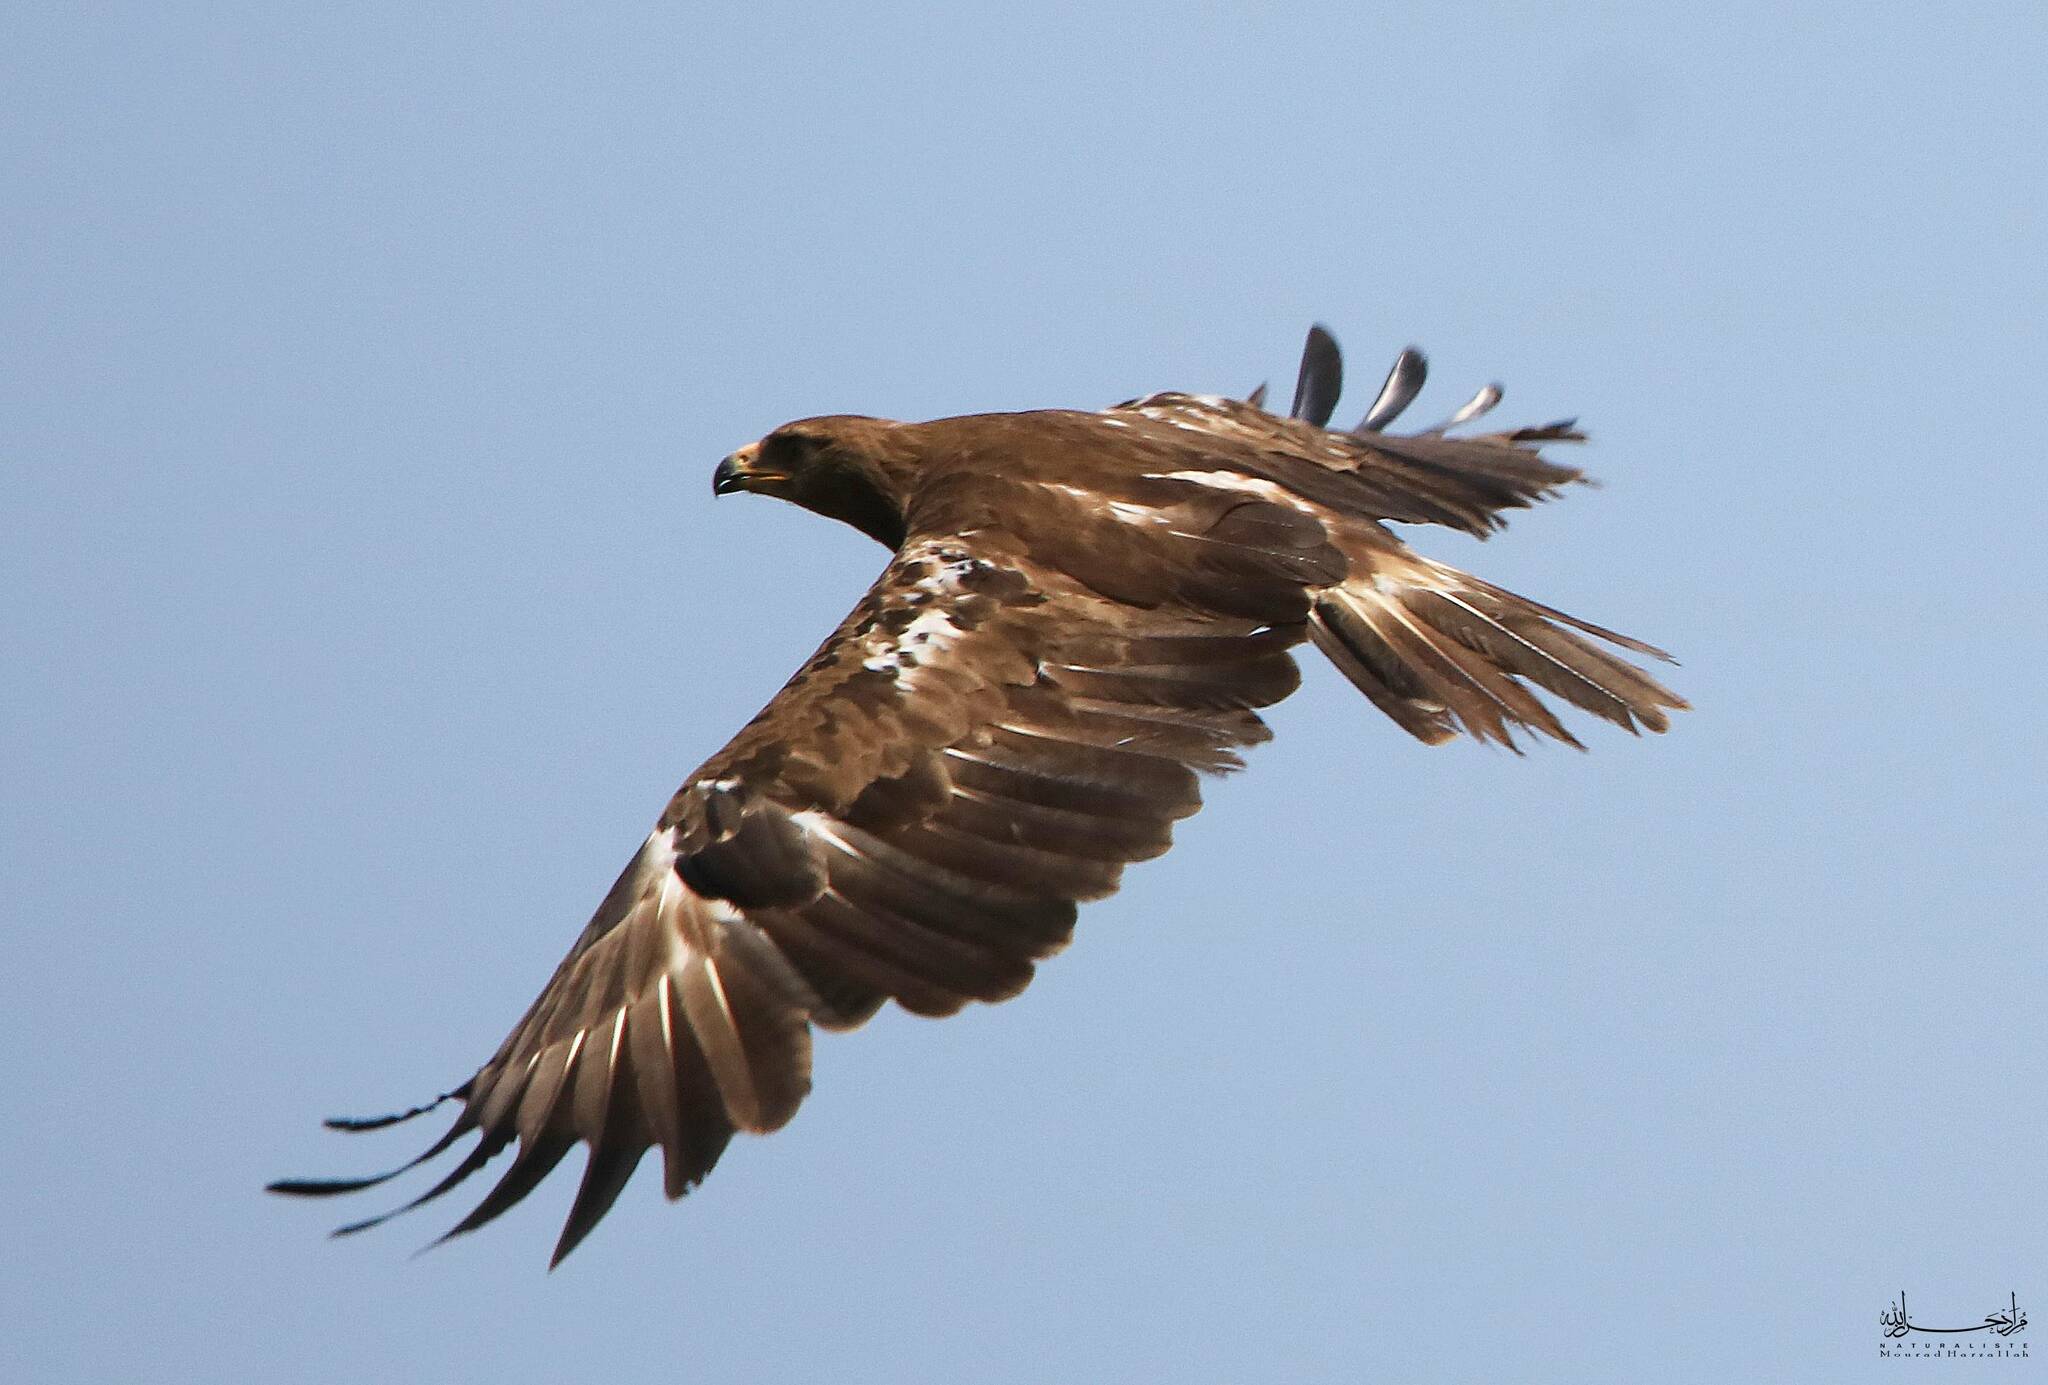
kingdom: Animalia
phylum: Chordata
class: Aves
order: Accipitriformes
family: Accipitridae
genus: Aquila
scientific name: Aquila pomarina
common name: Lesser spotted eagle
